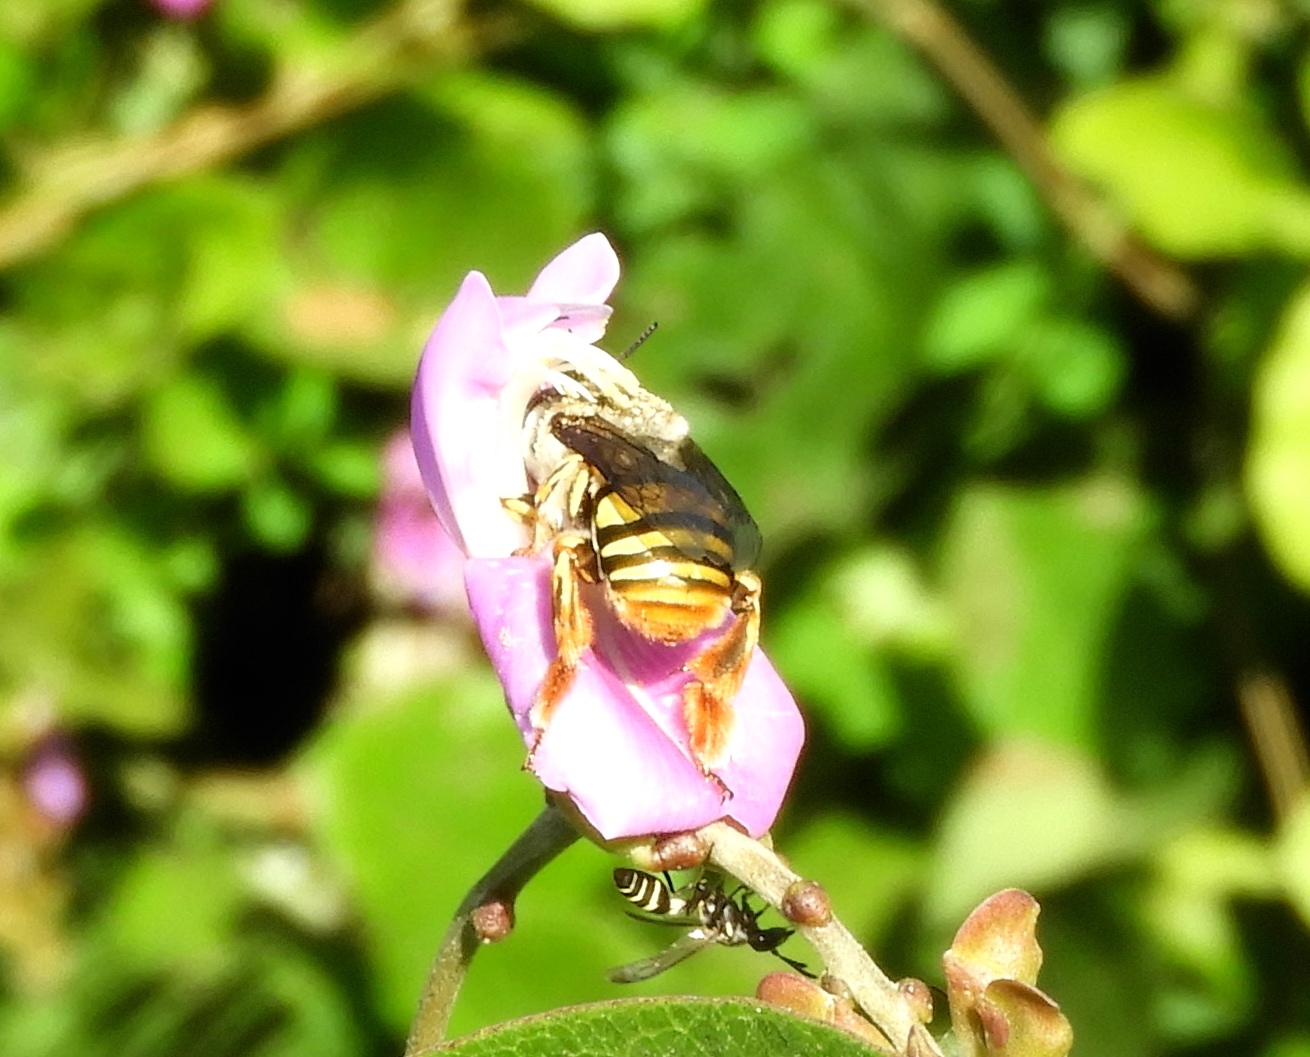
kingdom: Animalia
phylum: Arthropoda
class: Insecta
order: Hymenoptera
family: Apidae
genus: Centris
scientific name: Centris
